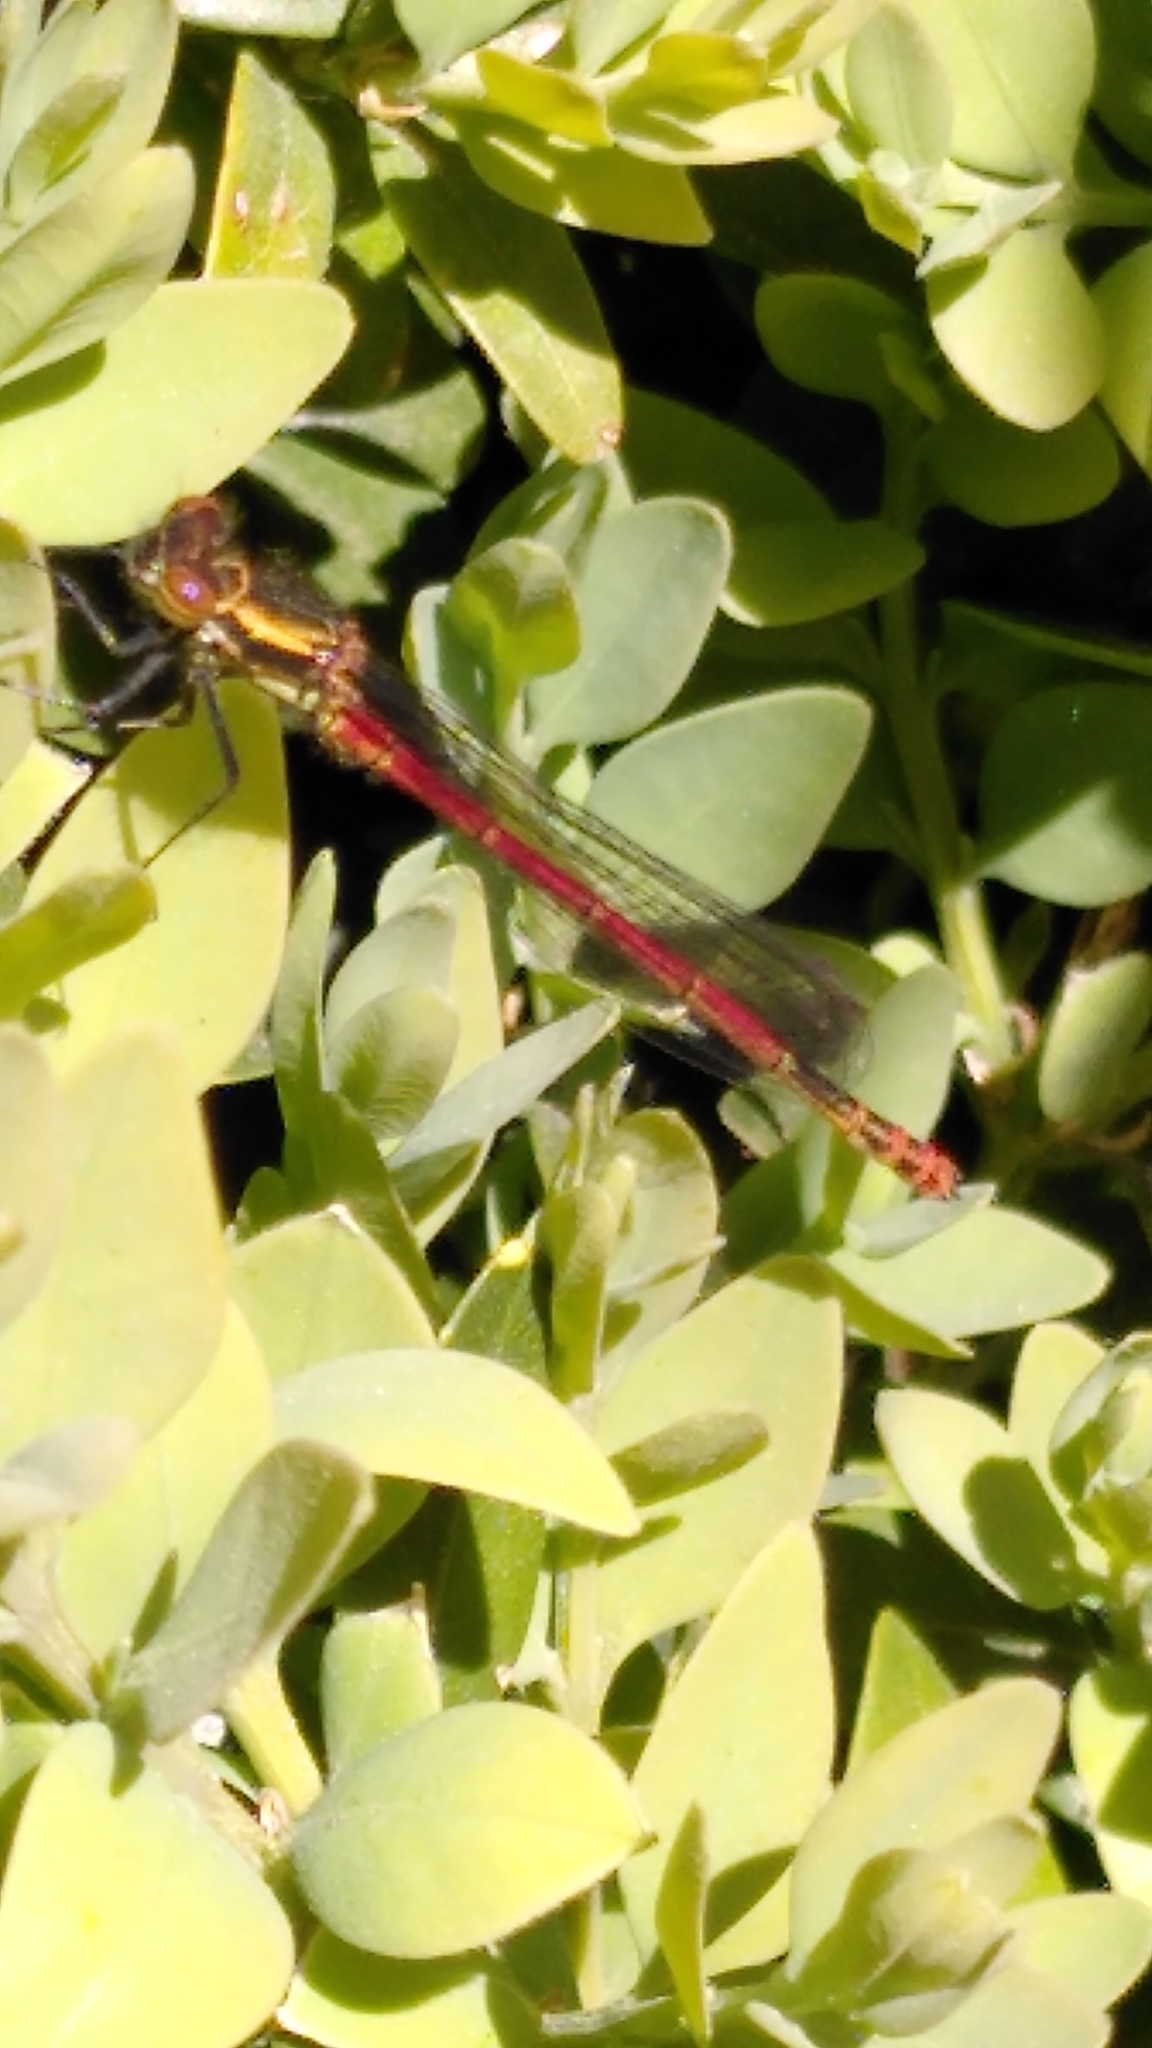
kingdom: Animalia
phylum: Arthropoda
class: Insecta
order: Odonata
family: Coenagrionidae
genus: Pyrrhosoma
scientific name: Pyrrhosoma nymphula
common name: Large red damsel
